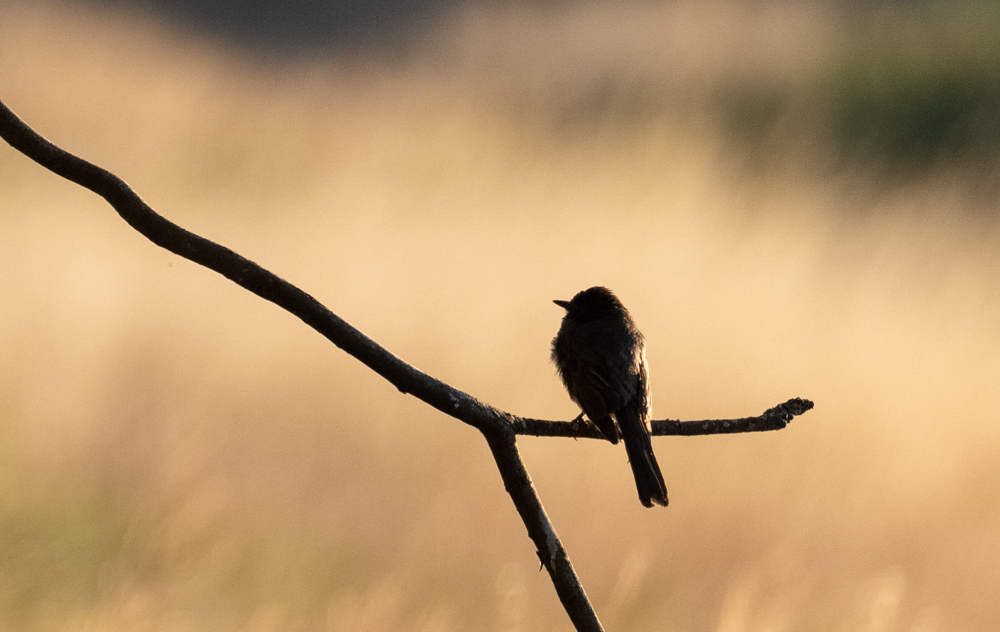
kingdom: Animalia
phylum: Chordata
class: Aves
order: Passeriformes
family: Tyrannidae
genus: Sayornis
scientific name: Sayornis nigricans
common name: Black phoebe
